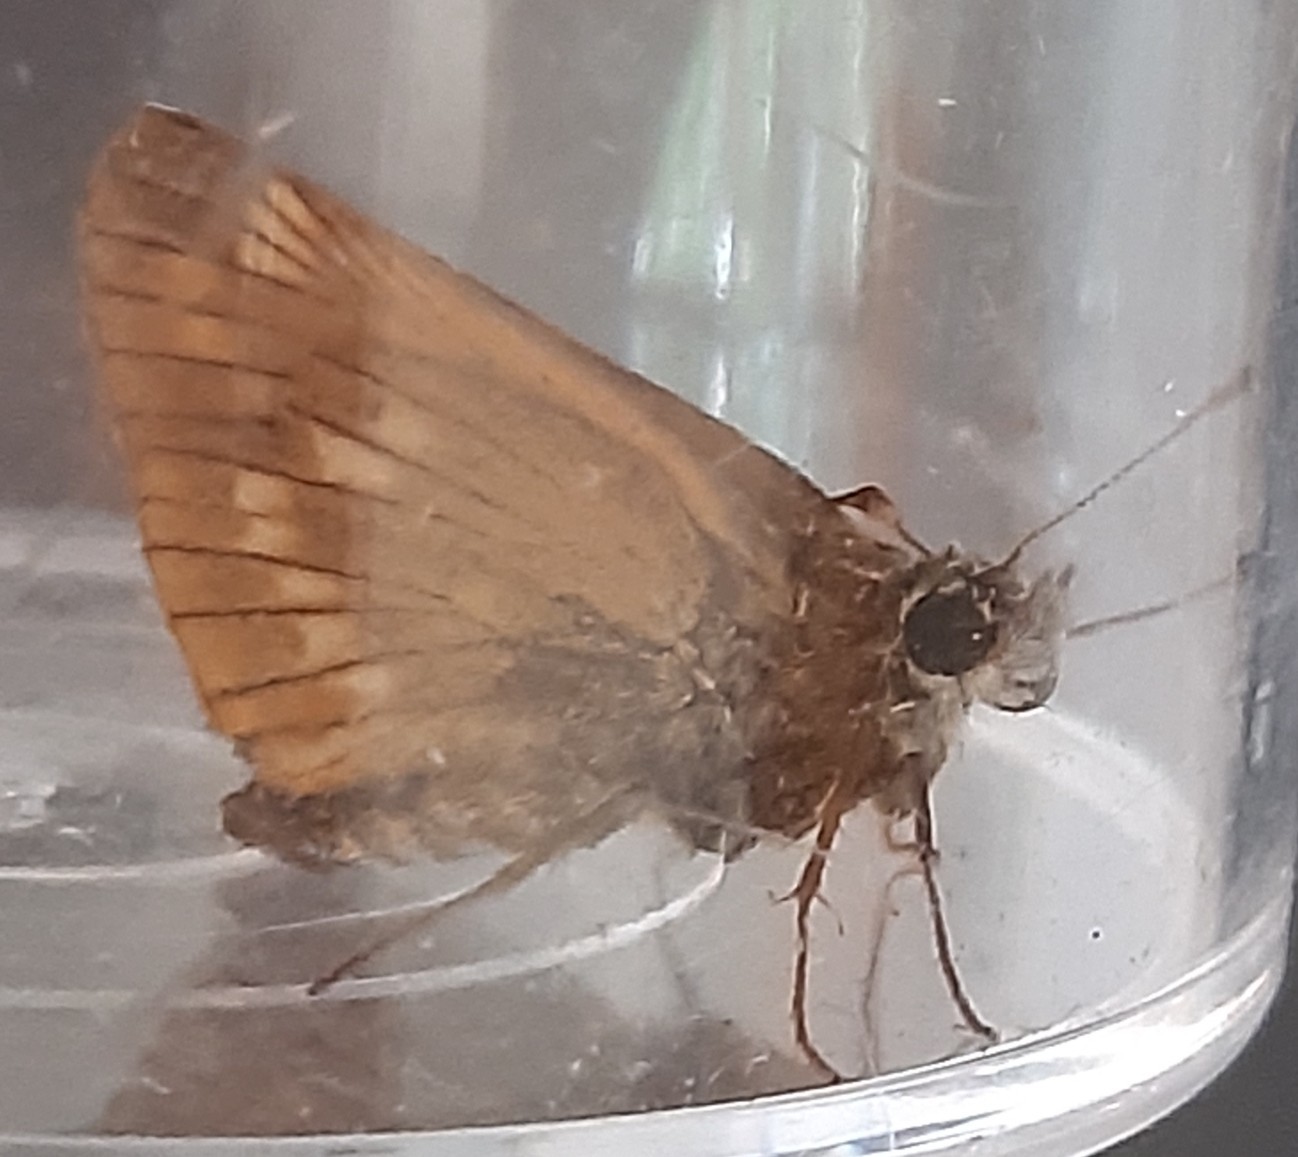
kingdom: Animalia
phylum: Arthropoda
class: Insecta
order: Lepidoptera
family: Hesperiidae
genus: Ochlodes
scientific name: Ochlodes venata
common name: Large skipper
